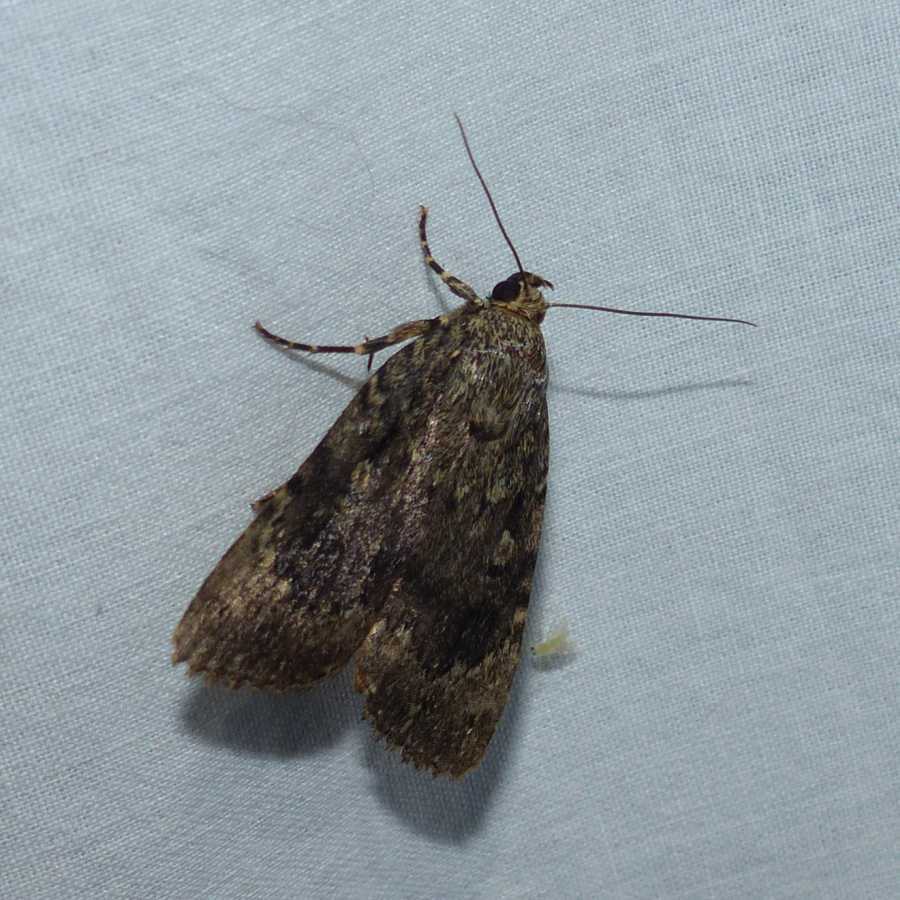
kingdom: Animalia
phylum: Arthropoda
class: Insecta
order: Lepidoptera
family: Noctuidae
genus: Amphipyra
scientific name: Amphipyra pyramidoides
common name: American copper underwing
